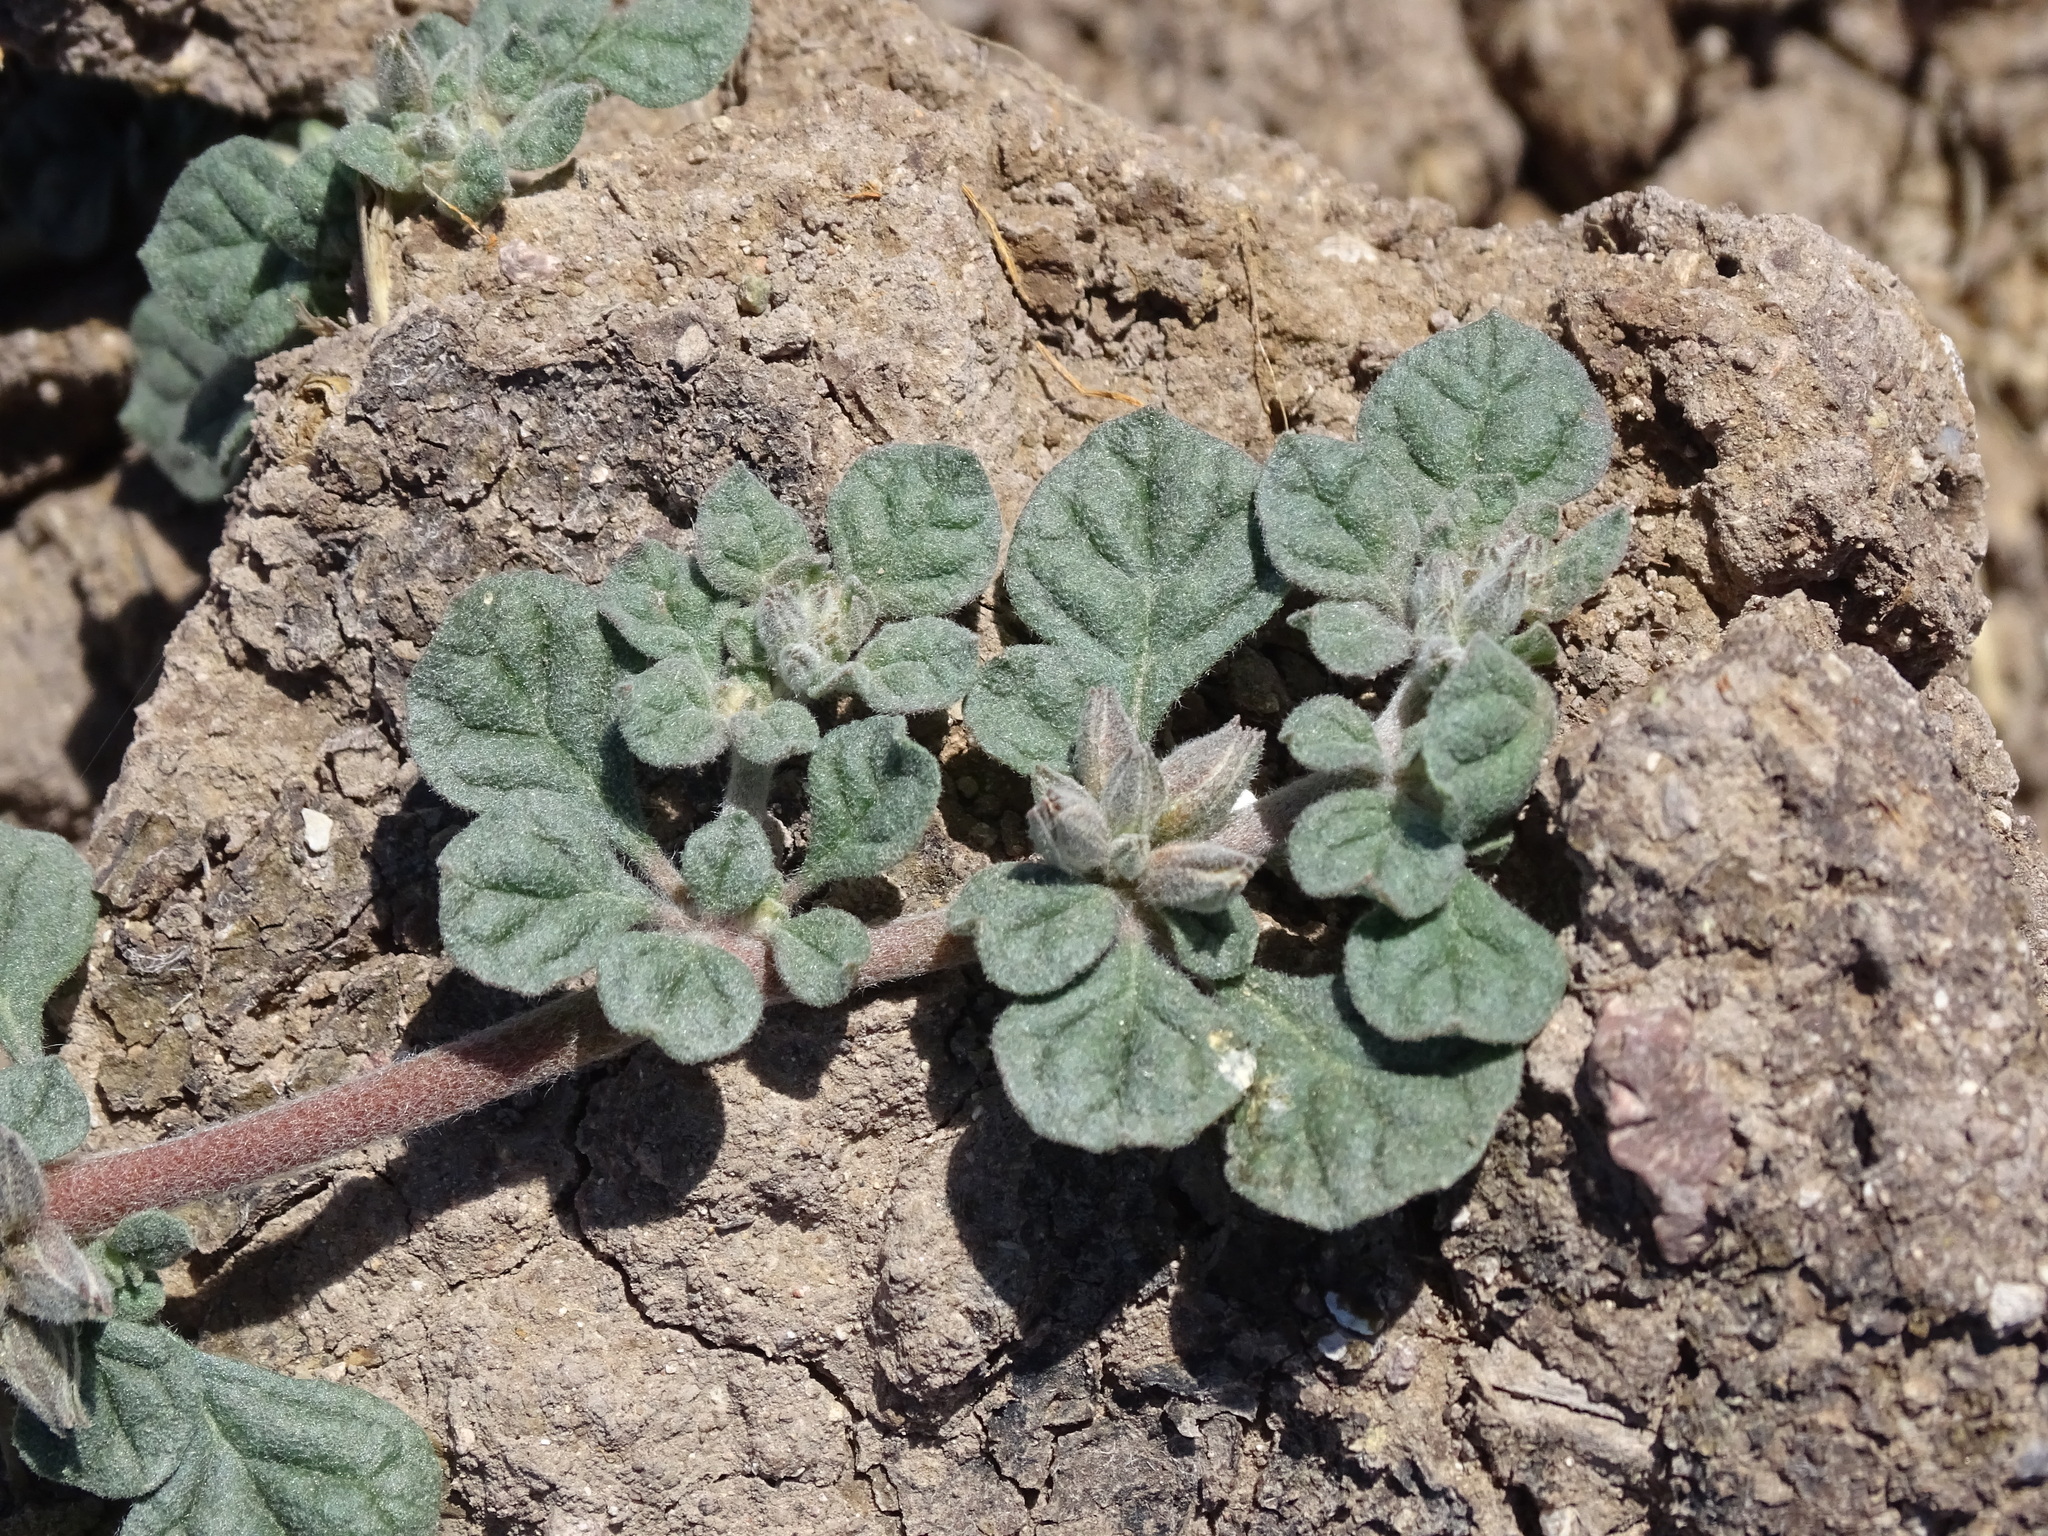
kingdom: Plantae
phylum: Tracheophyta
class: Magnoliopsida
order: Caryophyllales
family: Molluginaceae
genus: Glinus
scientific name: Glinus radiatus
